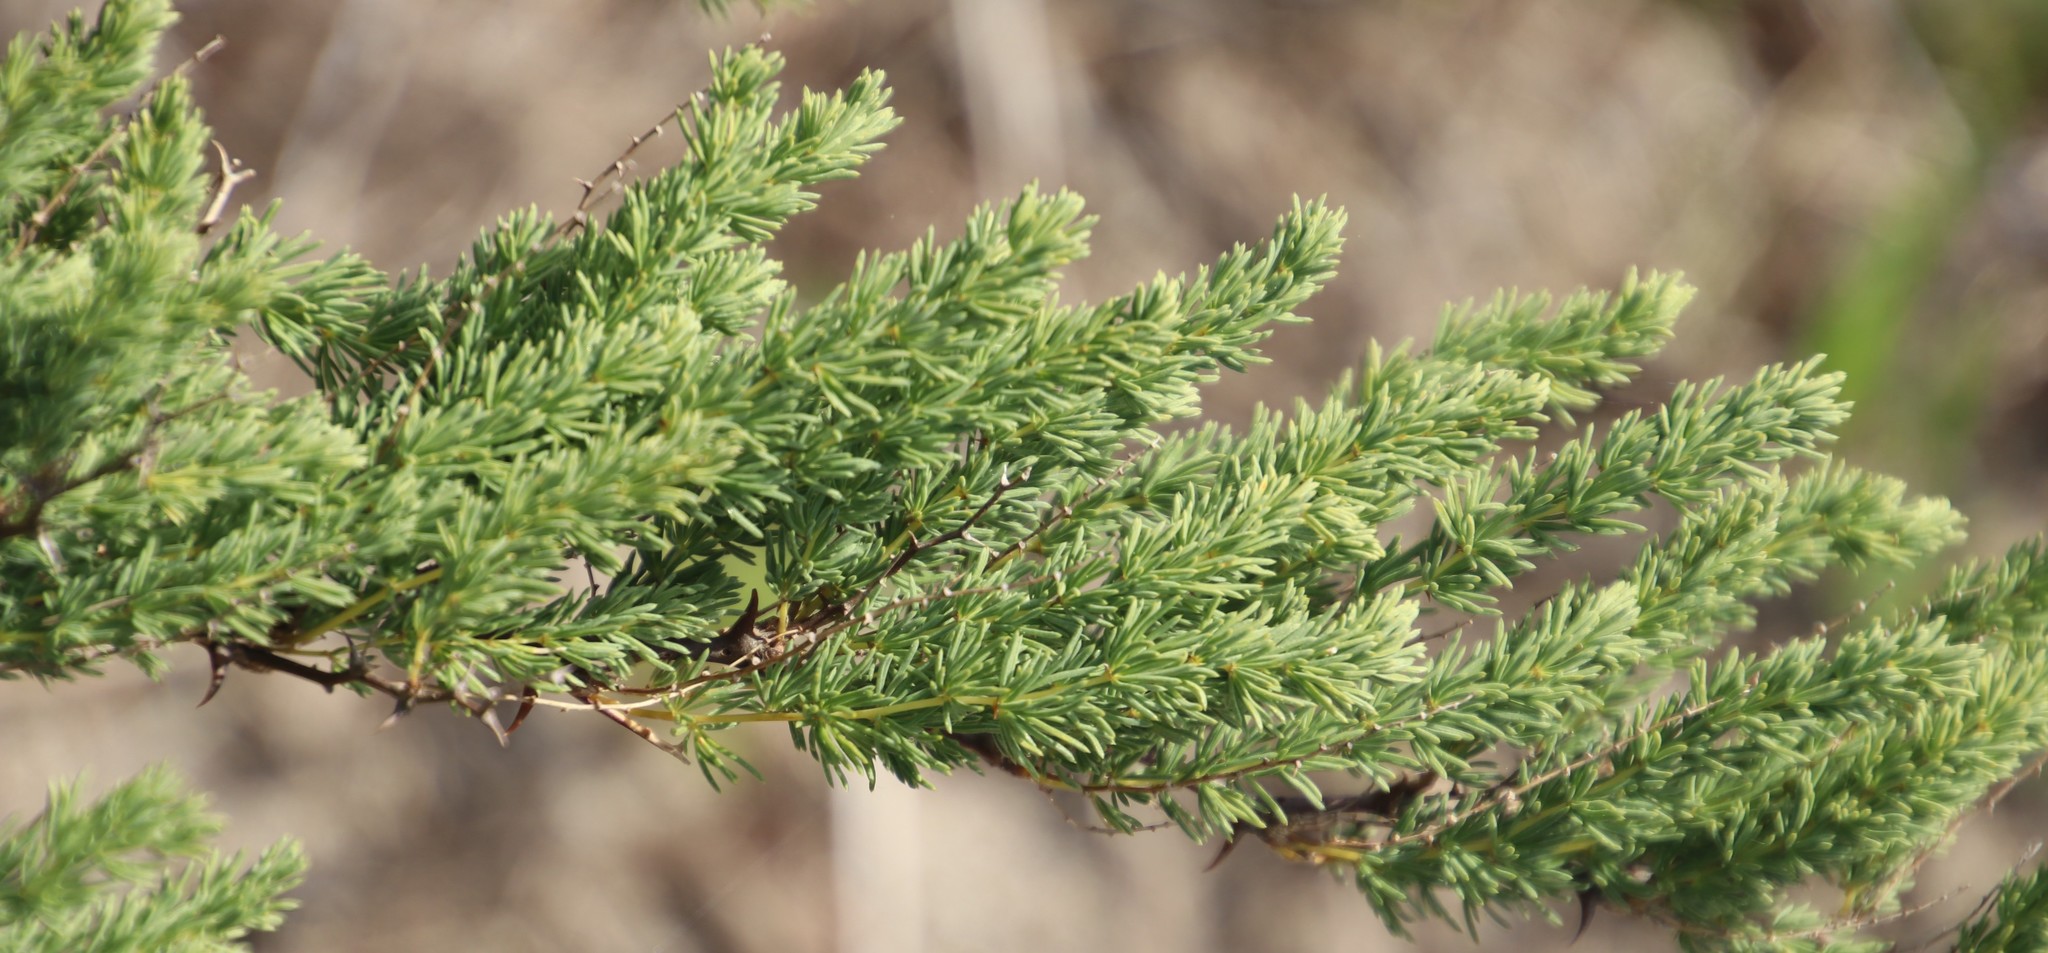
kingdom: Plantae
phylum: Tracheophyta
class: Liliopsida
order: Asparagales
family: Asparagaceae
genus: Asparagus
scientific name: Asparagus rubicundus
